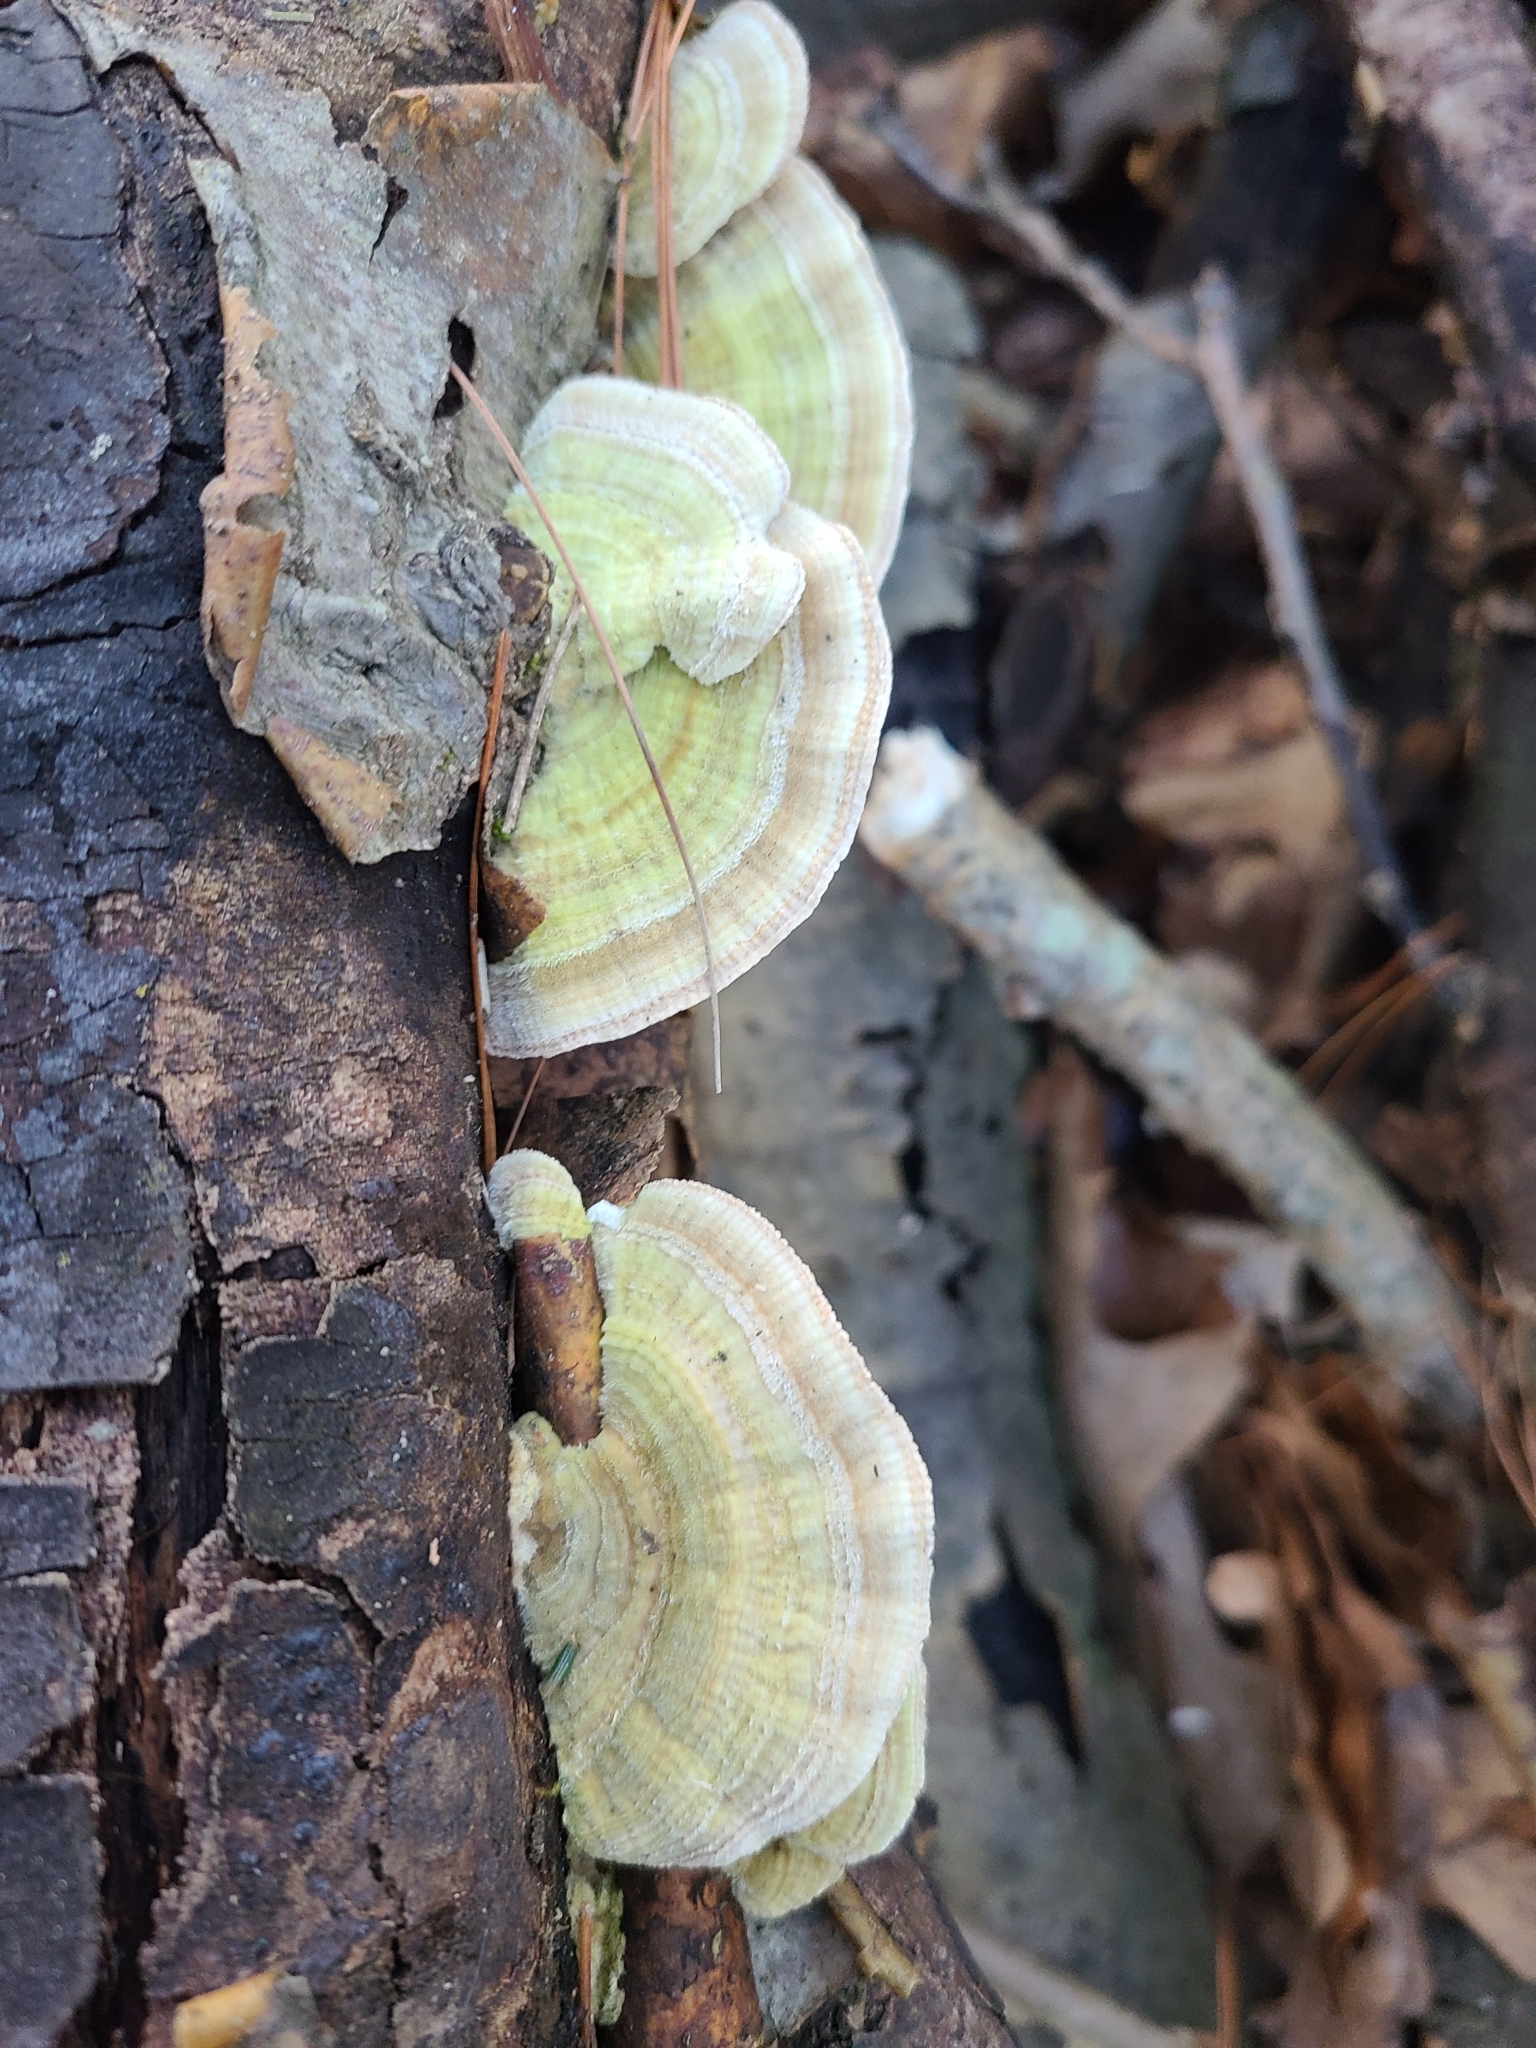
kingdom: Fungi
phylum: Basidiomycota
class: Agaricomycetes
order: Polyporales
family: Polyporaceae
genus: Lenzites
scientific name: Lenzites betulinus
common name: Birch mazegill
